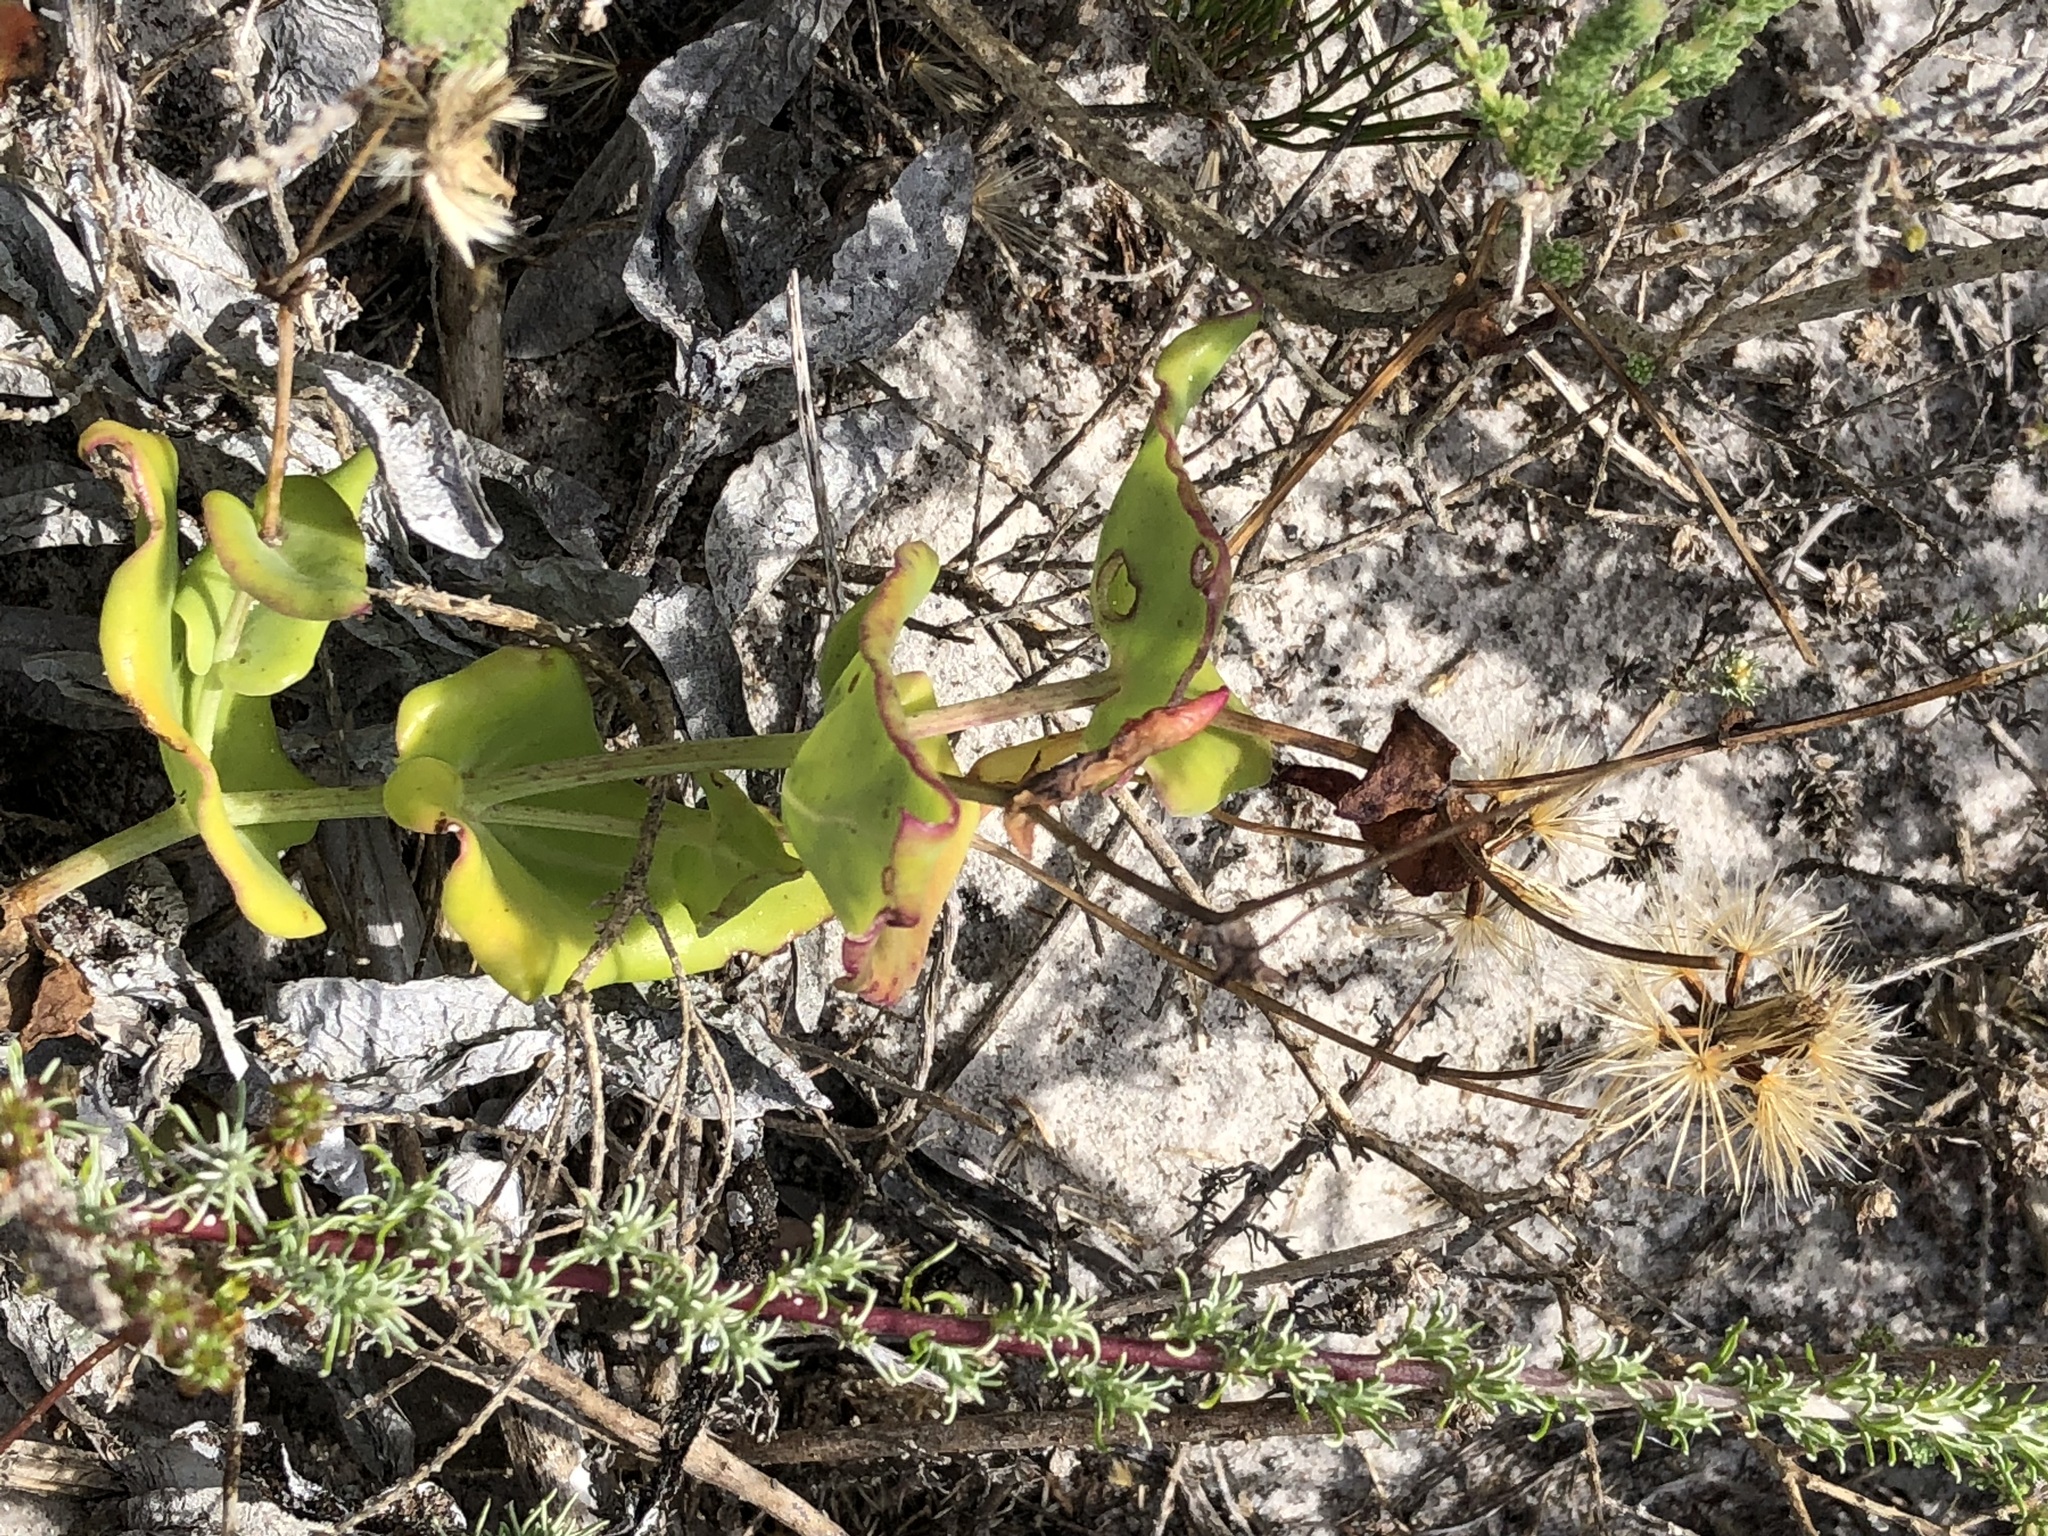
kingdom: Plantae
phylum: Tracheophyta
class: Magnoliopsida
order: Asterales
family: Asteraceae
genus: Othonna
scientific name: Othonna undulosa
